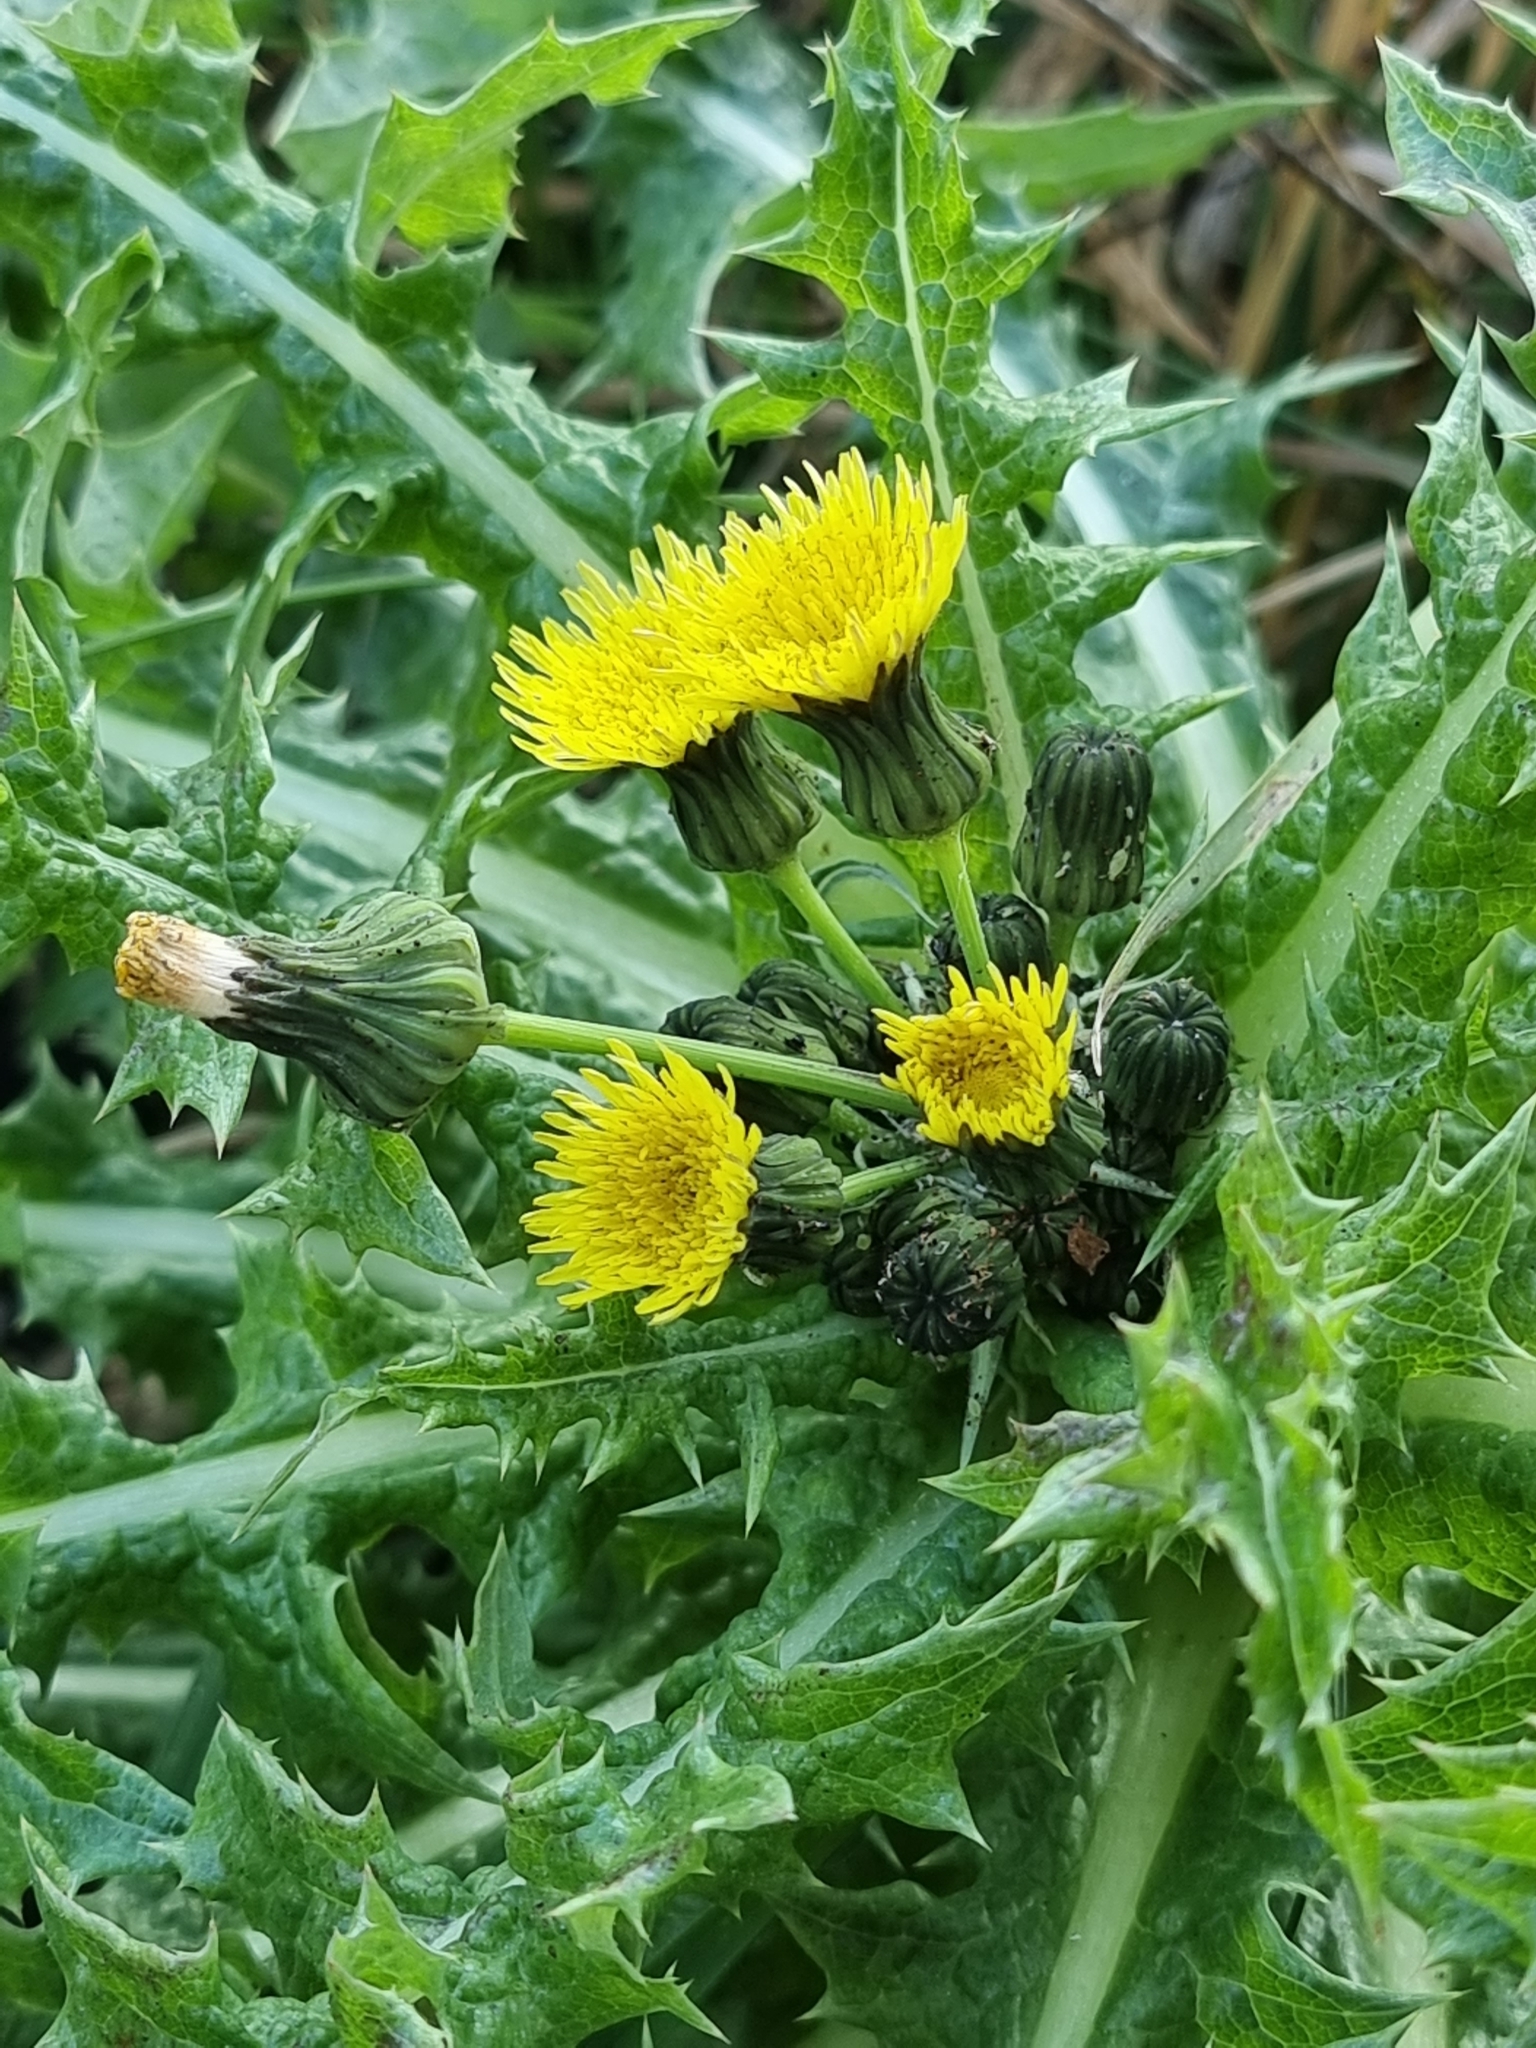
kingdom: Plantae
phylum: Tracheophyta
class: Magnoliopsida
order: Asterales
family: Asteraceae
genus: Sonchus
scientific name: Sonchus asper
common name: Prickly sow-thistle
